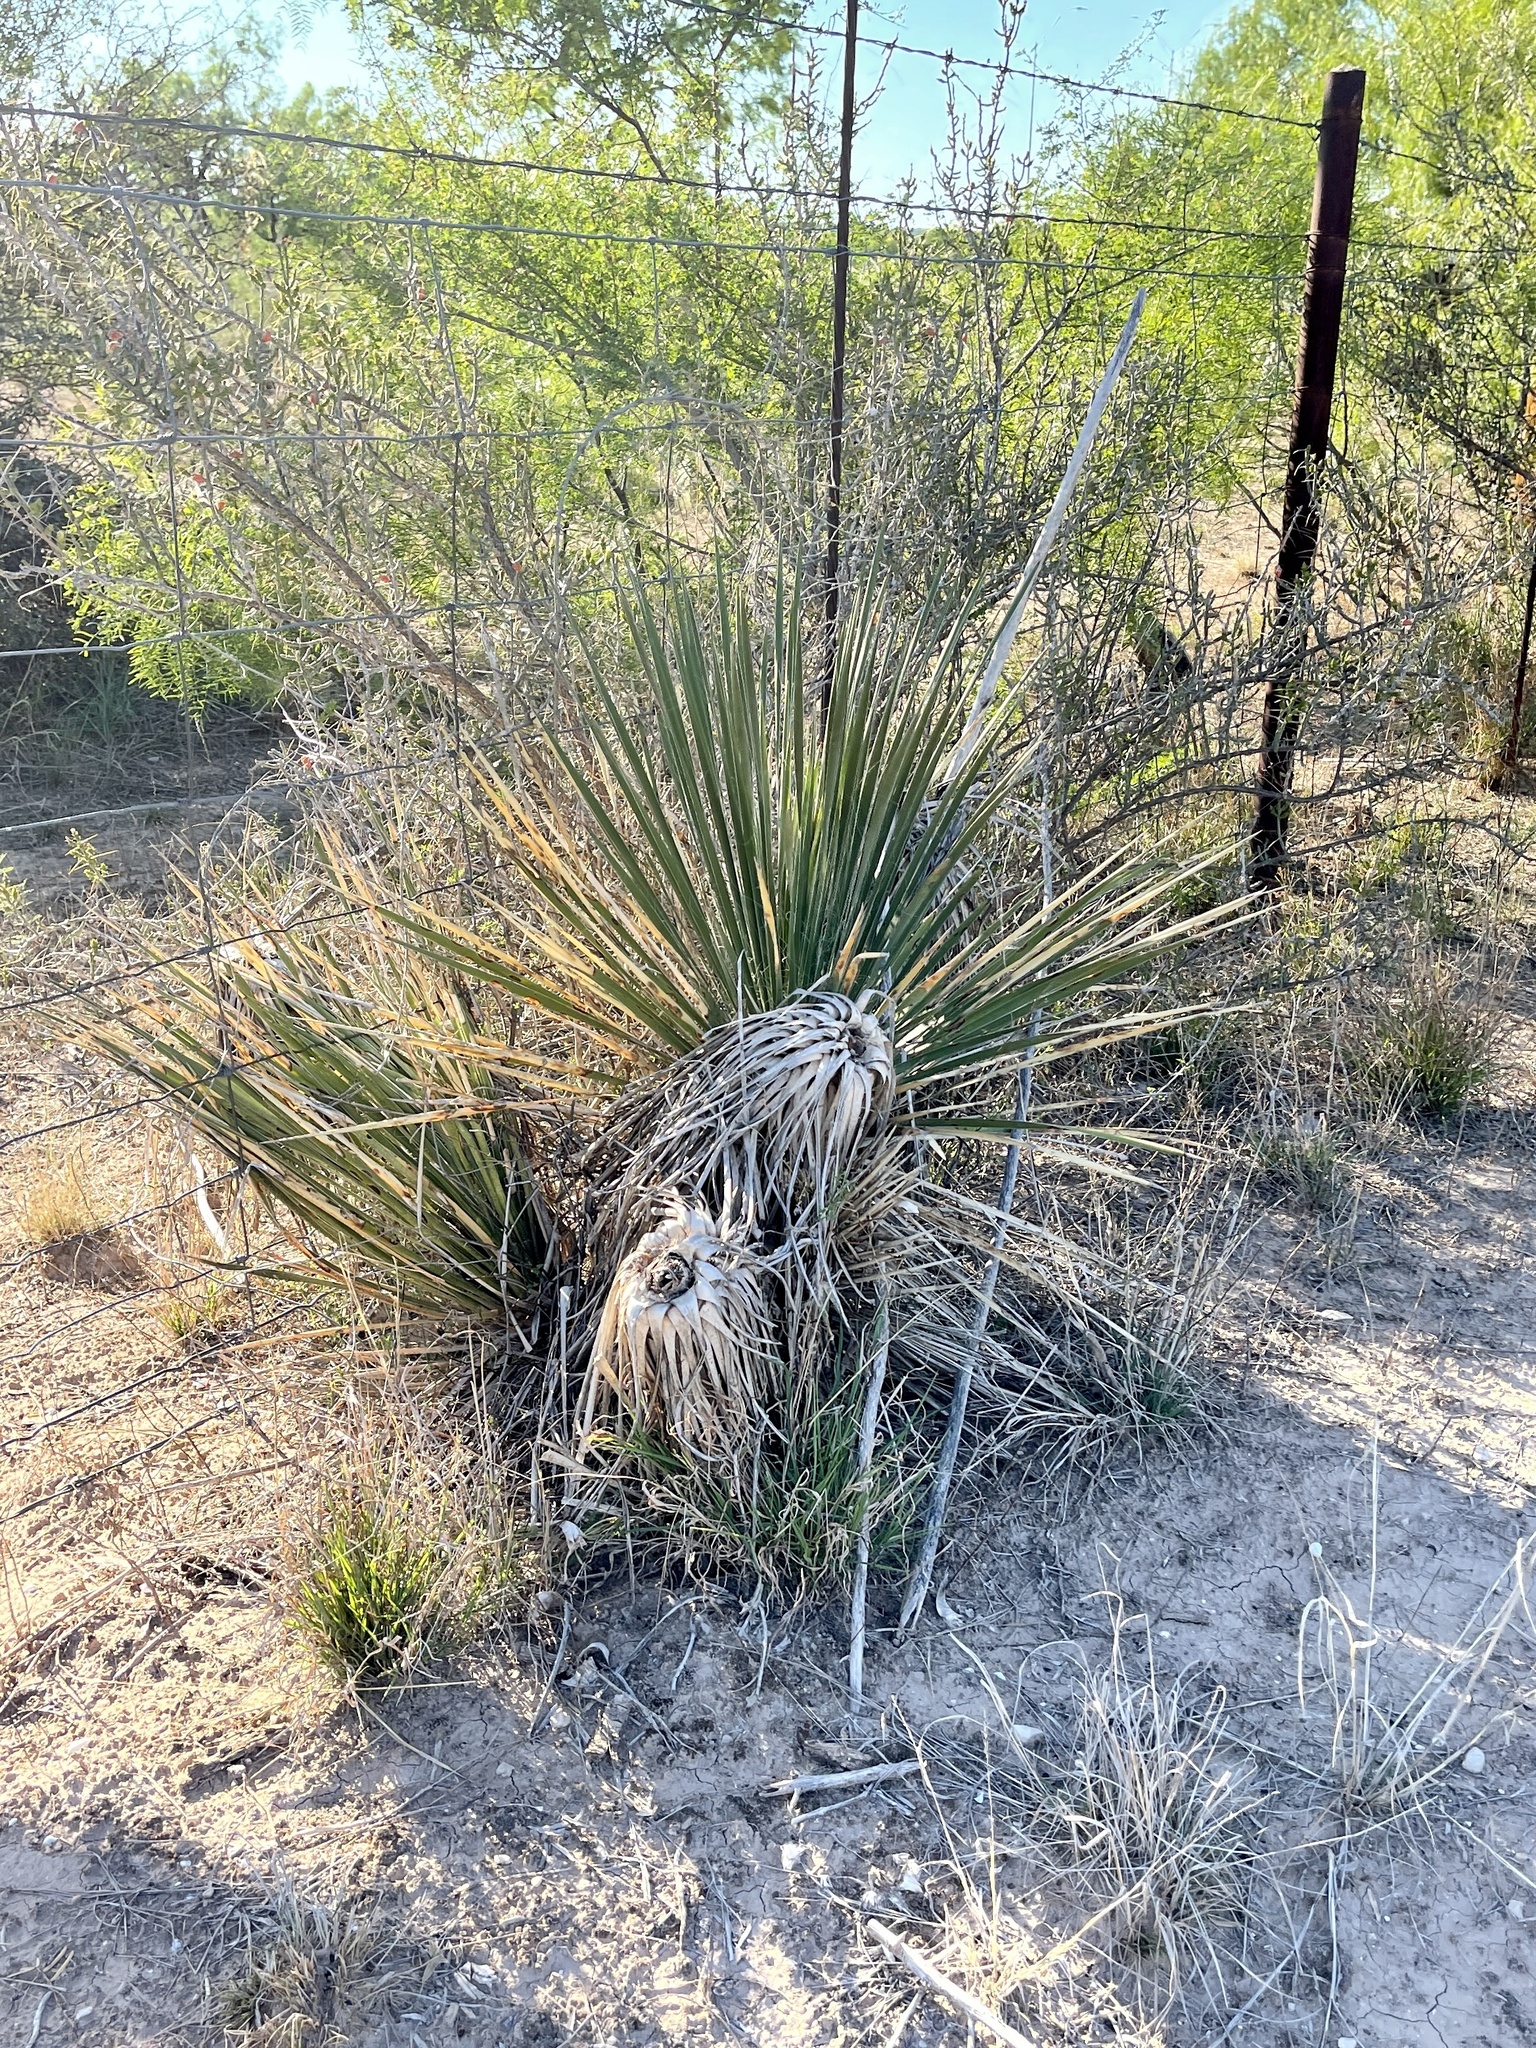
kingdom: Plantae
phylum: Tracheophyta
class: Liliopsida
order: Asparagales
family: Asparagaceae
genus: Yucca
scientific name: Yucca constricta
